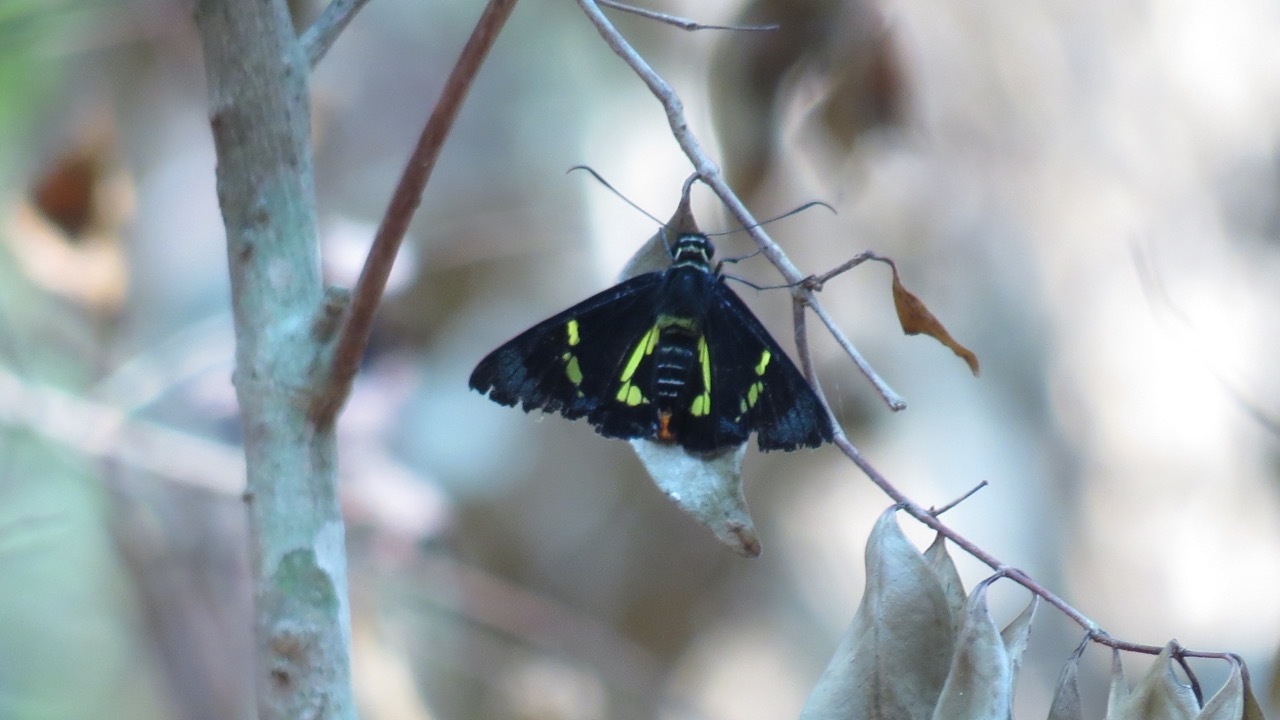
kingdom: Animalia
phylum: Arthropoda
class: Insecta
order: Lepidoptera
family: Hesperiidae
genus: Euschemon
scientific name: Euschemon rafflesia
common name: Regent skipper
